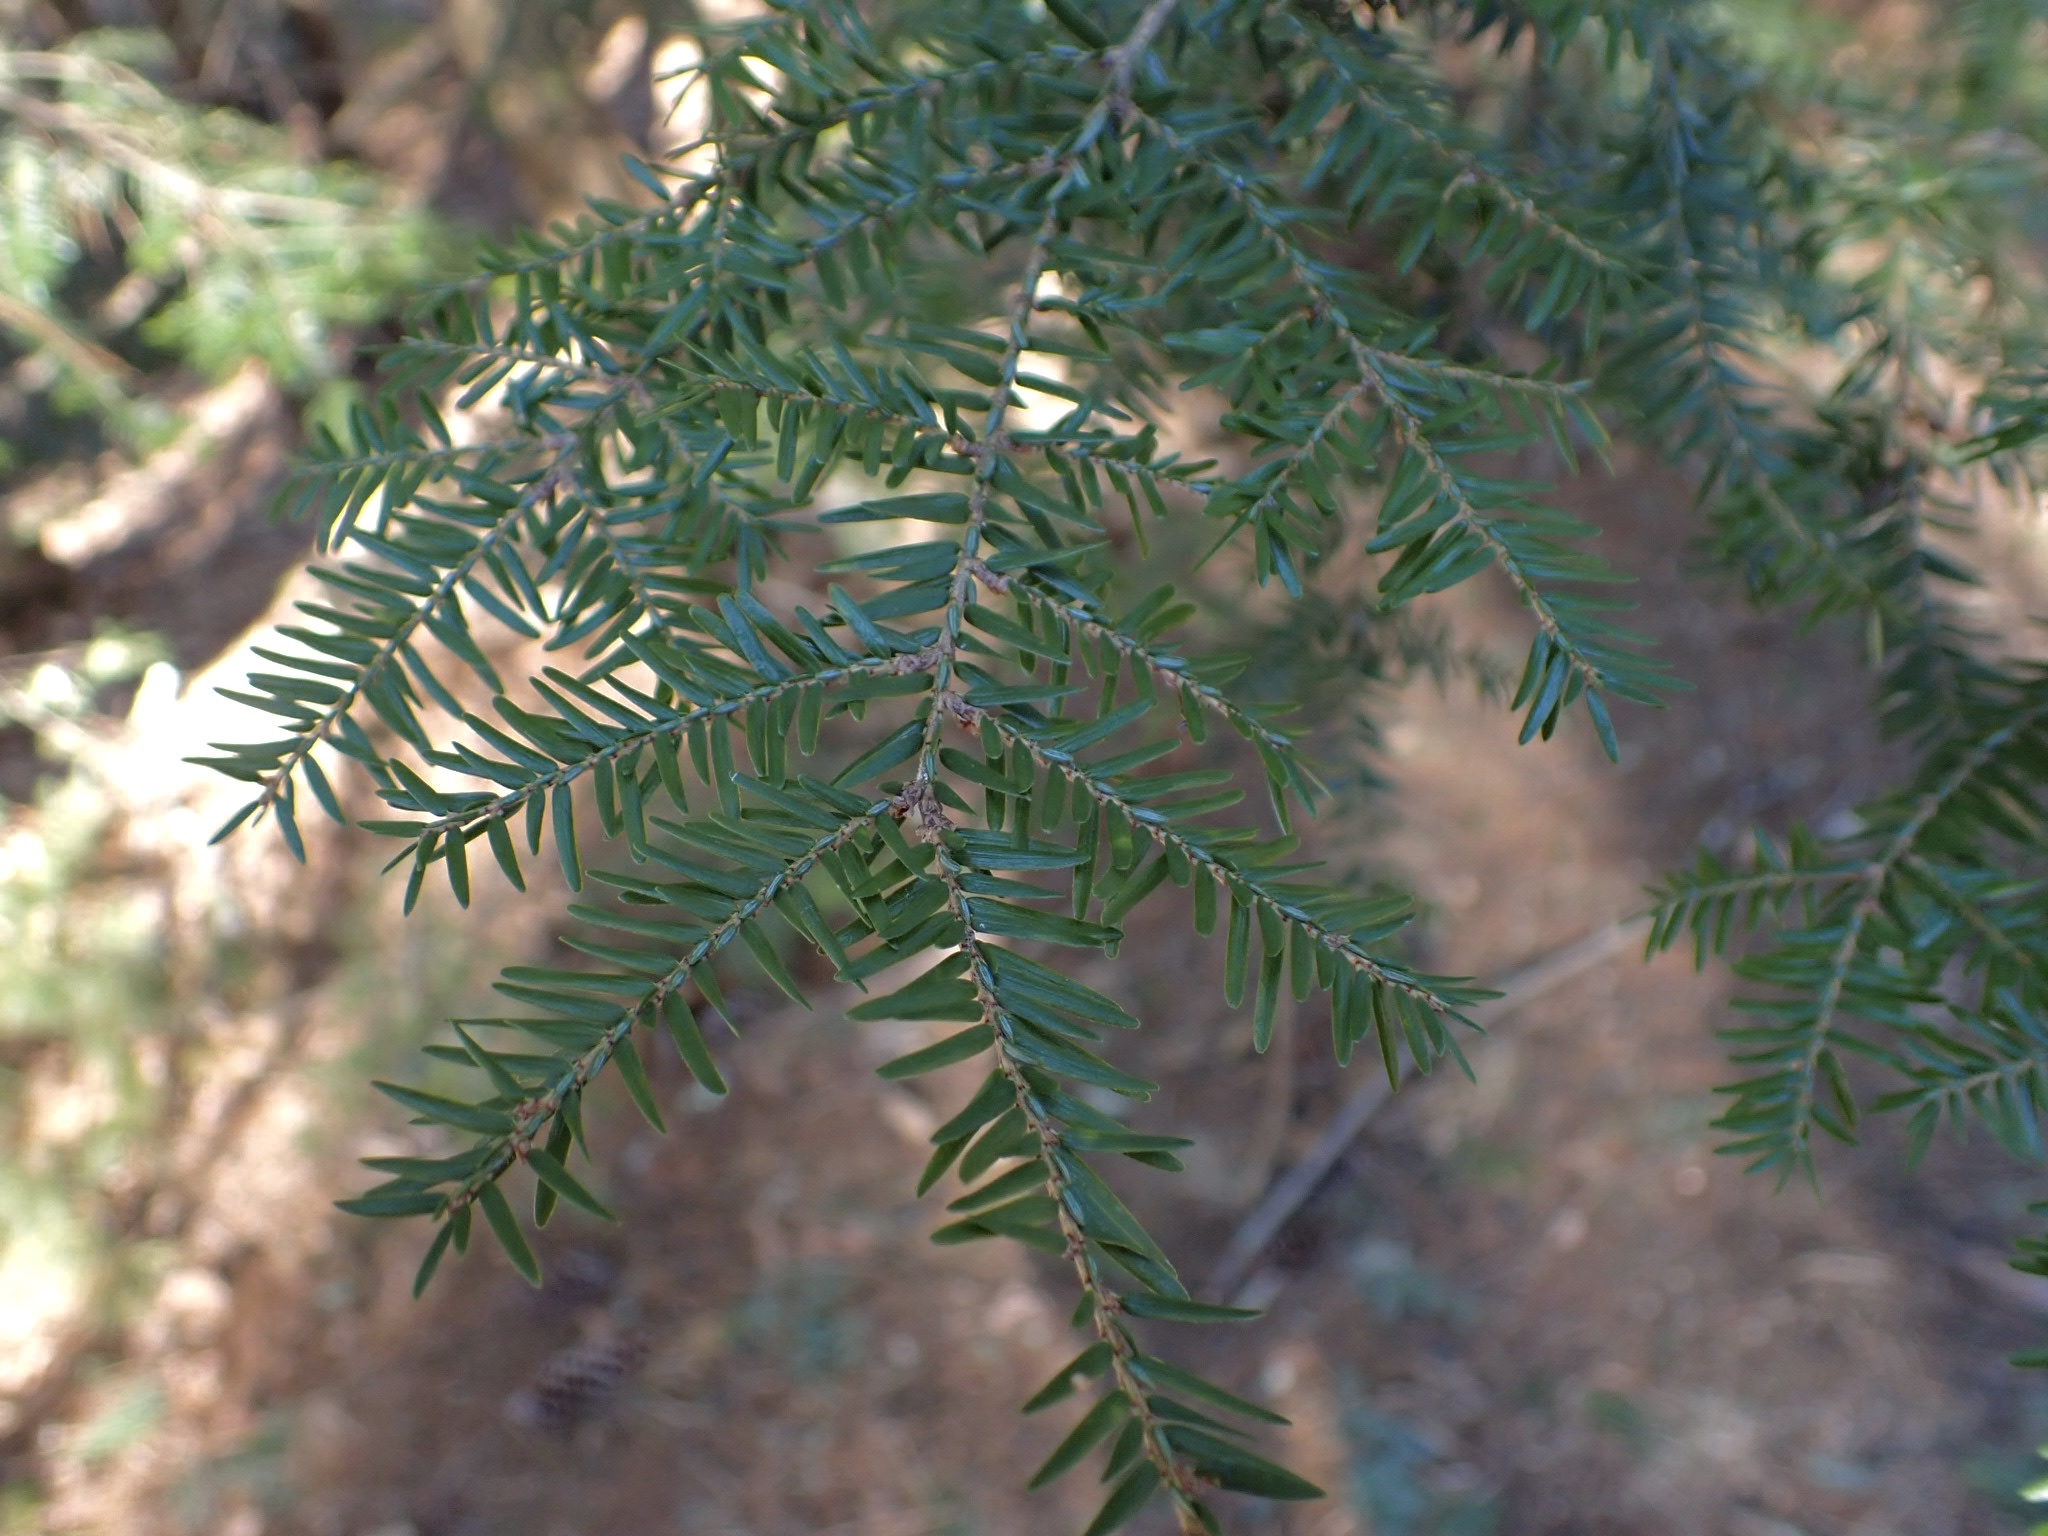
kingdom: Plantae
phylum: Tracheophyta
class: Pinopsida
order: Pinales
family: Pinaceae
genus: Tsuga
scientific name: Tsuga canadensis
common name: Eastern hemlock
